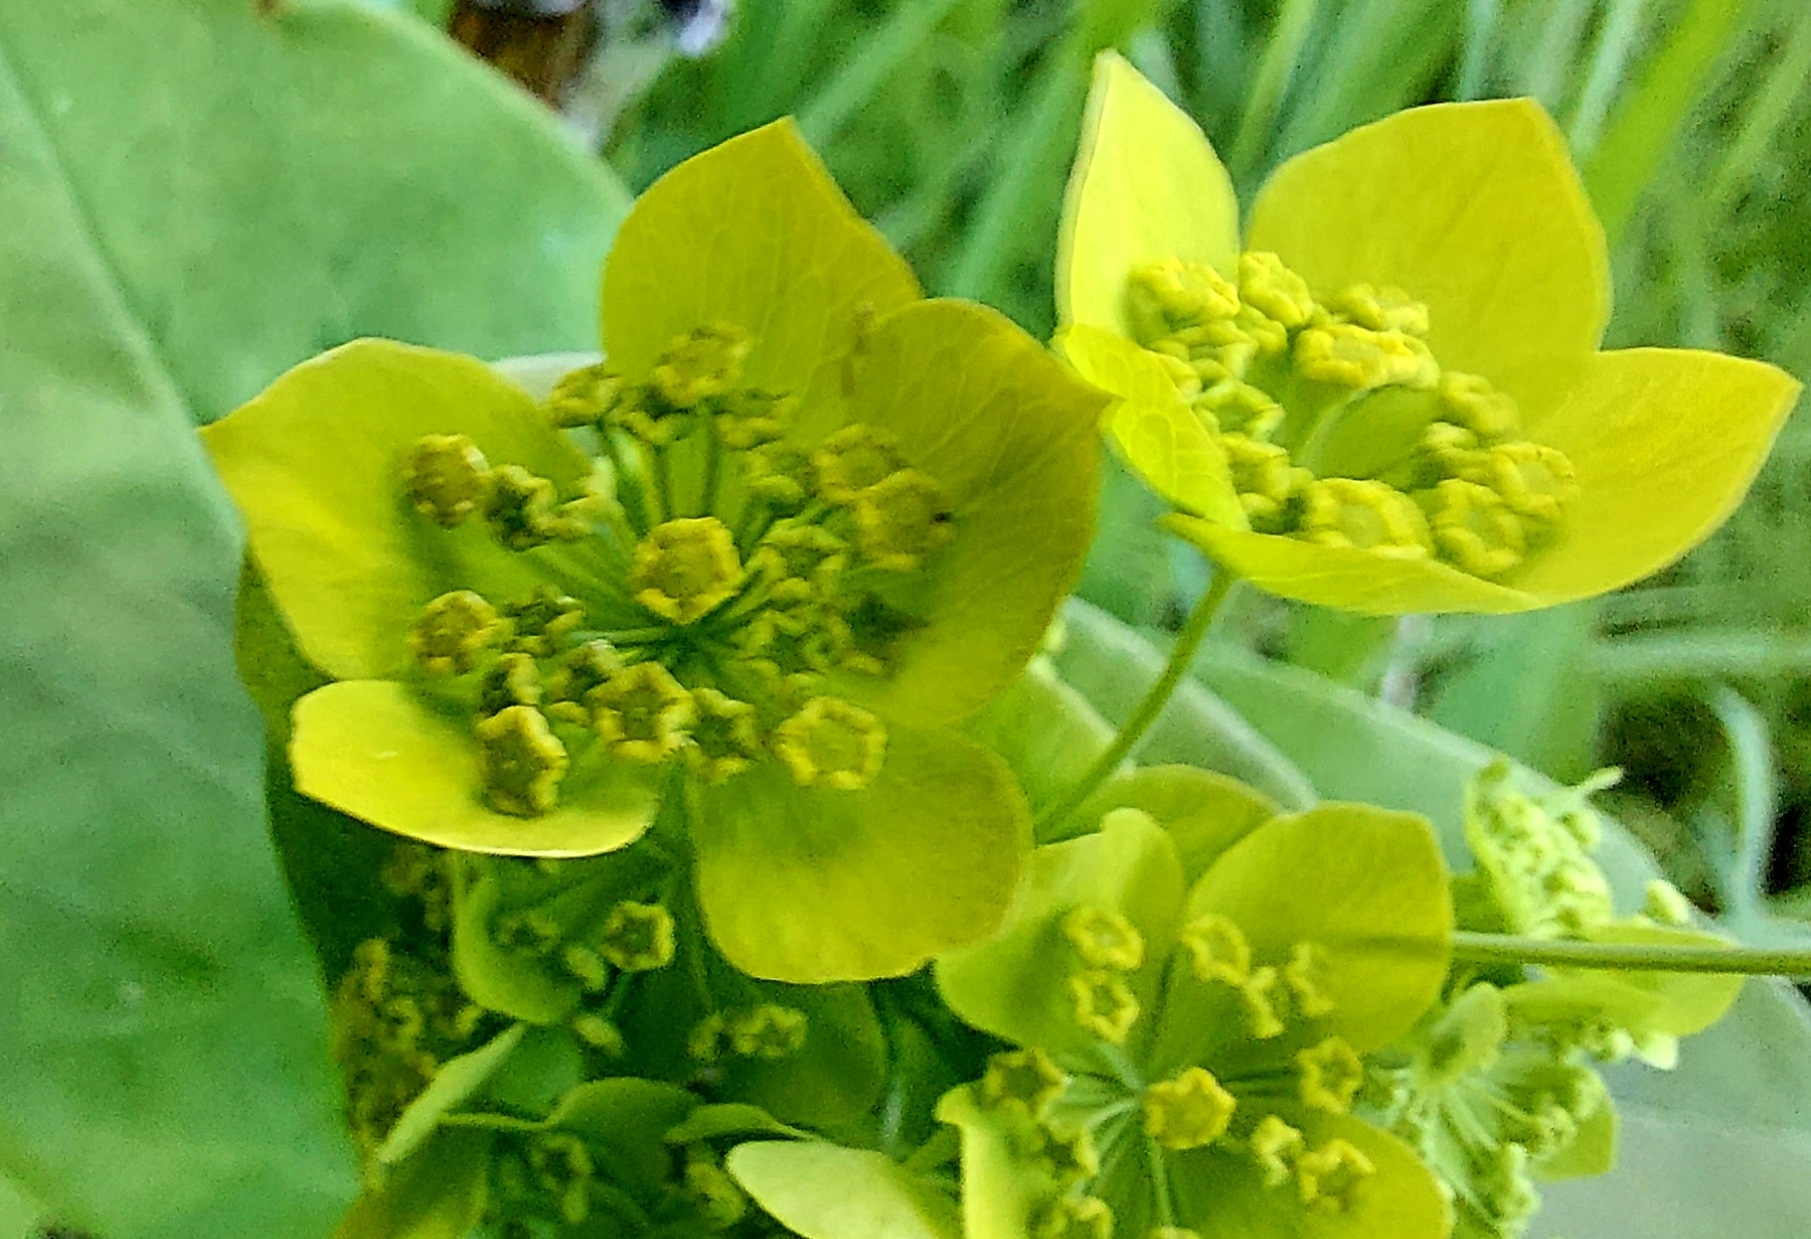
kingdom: Plantae
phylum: Tracheophyta
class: Magnoliopsida
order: Apiales
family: Apiaceae
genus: Bupleurum
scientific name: Bupleurum aureum
